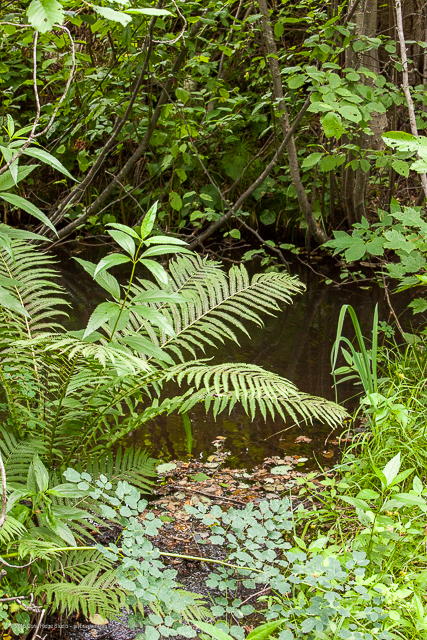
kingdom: Plantae
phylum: Tracheophyta
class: Polypodiopsida
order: Polypodiales
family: Onocleaceae
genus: Matteuccia
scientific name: Matteuccia struthiopteris
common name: Ostrich fern
